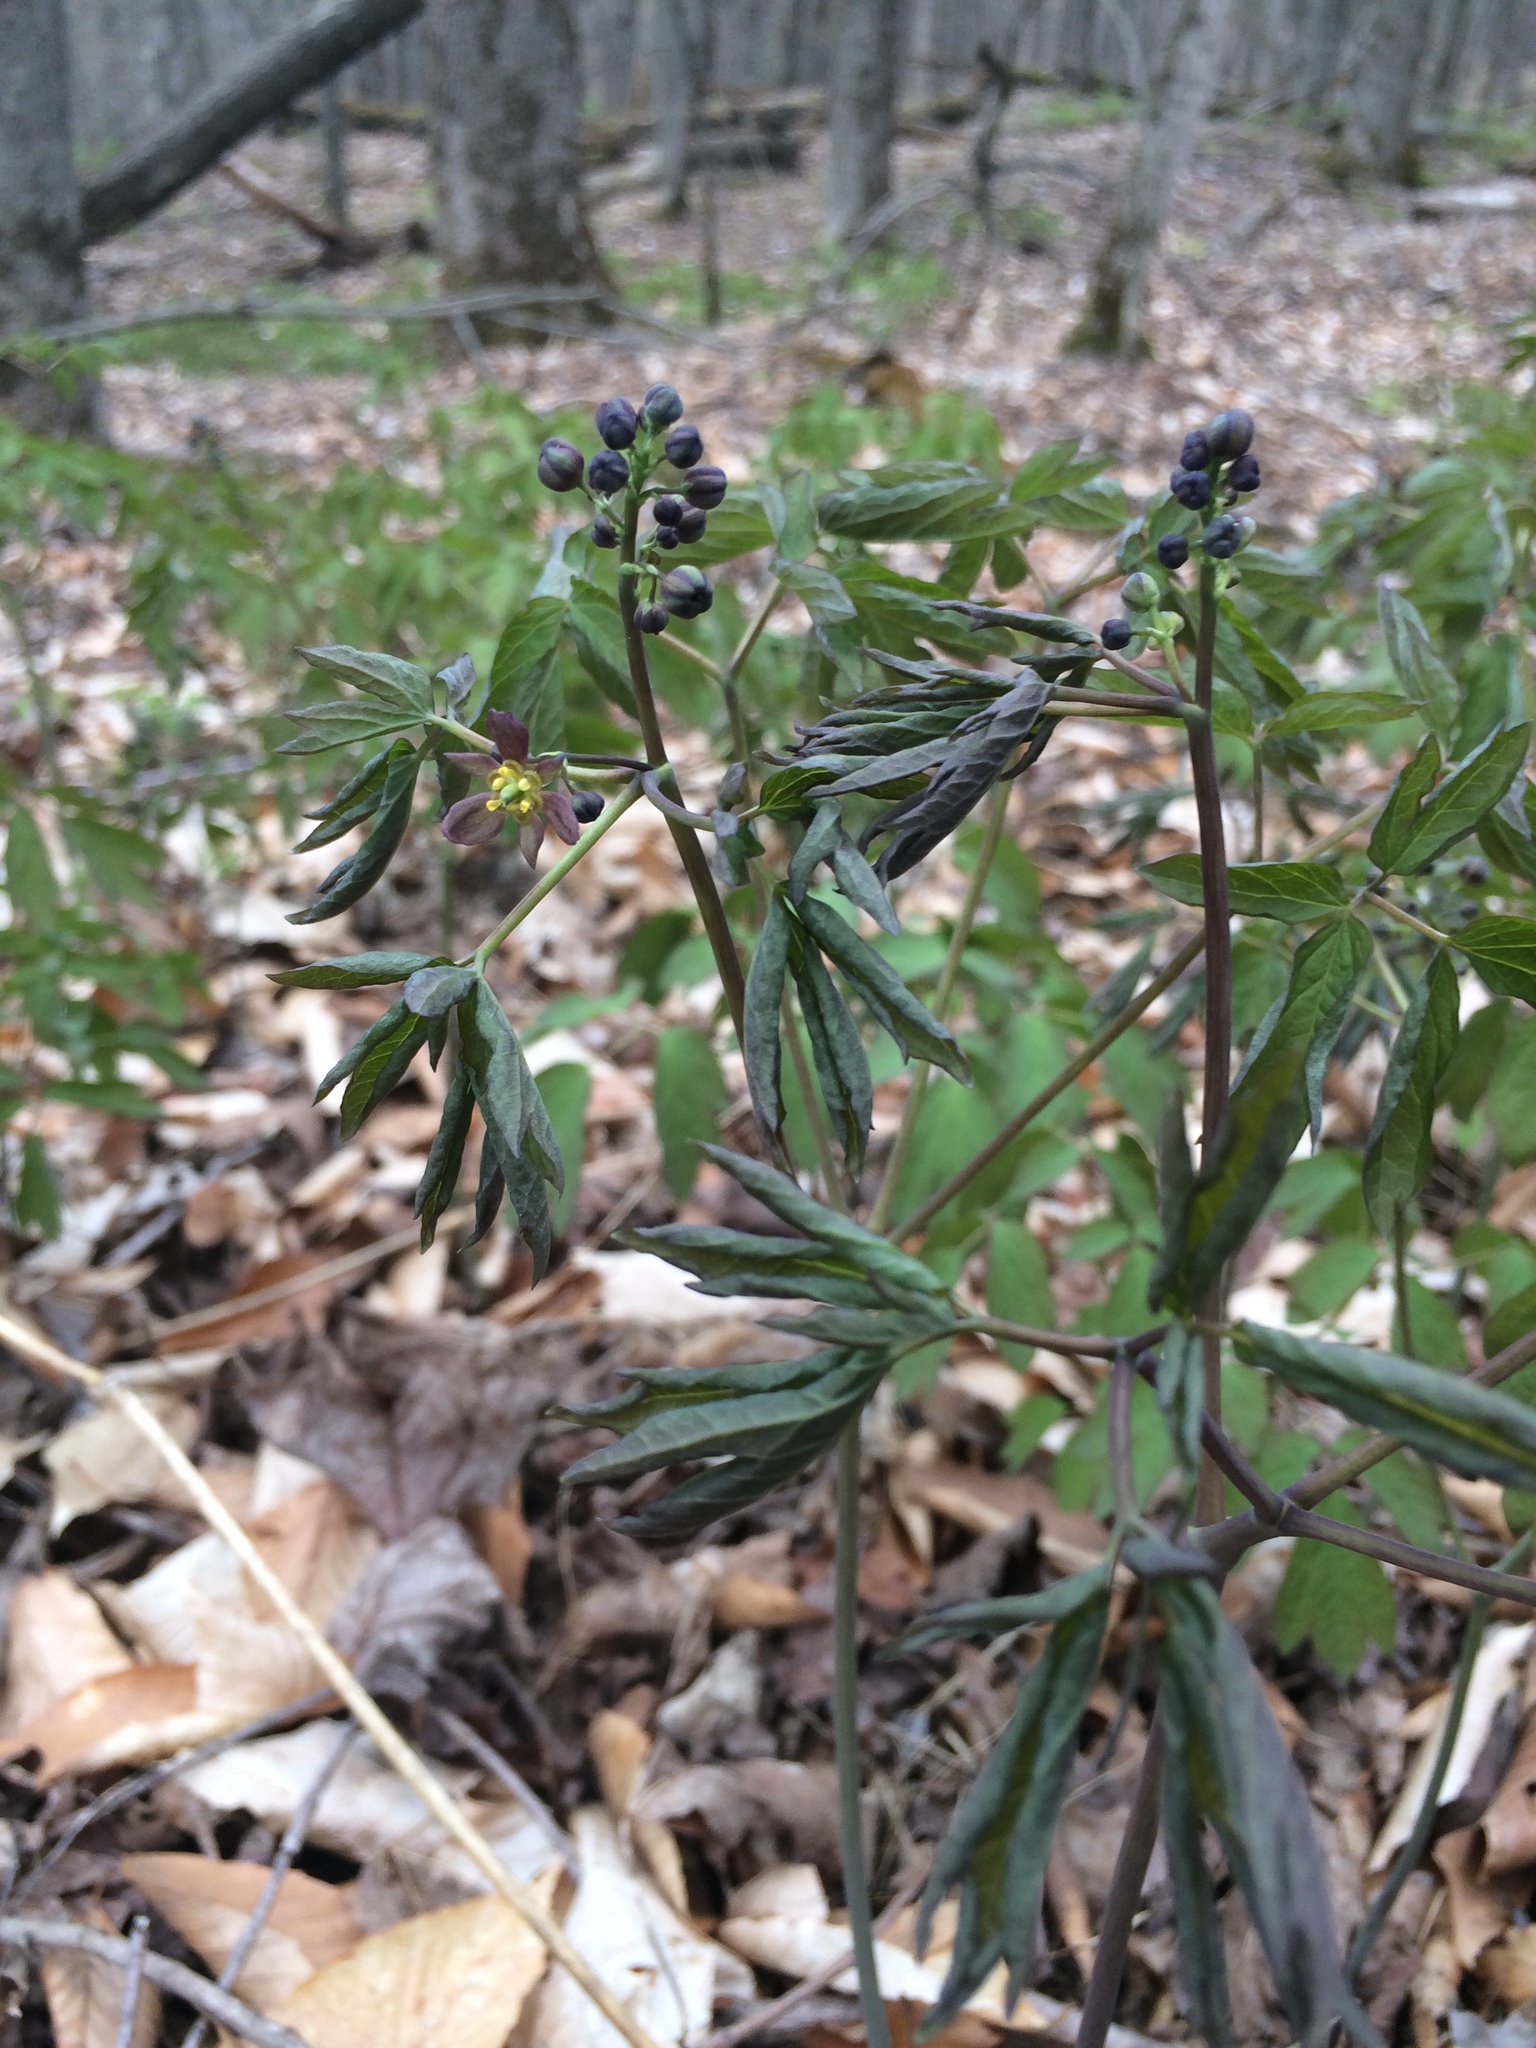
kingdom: Plantae
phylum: Tracheophyta
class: Magnoliopsida
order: Ranunculales
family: Berberidaceae
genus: Caulophyllum
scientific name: Caulophyllum
